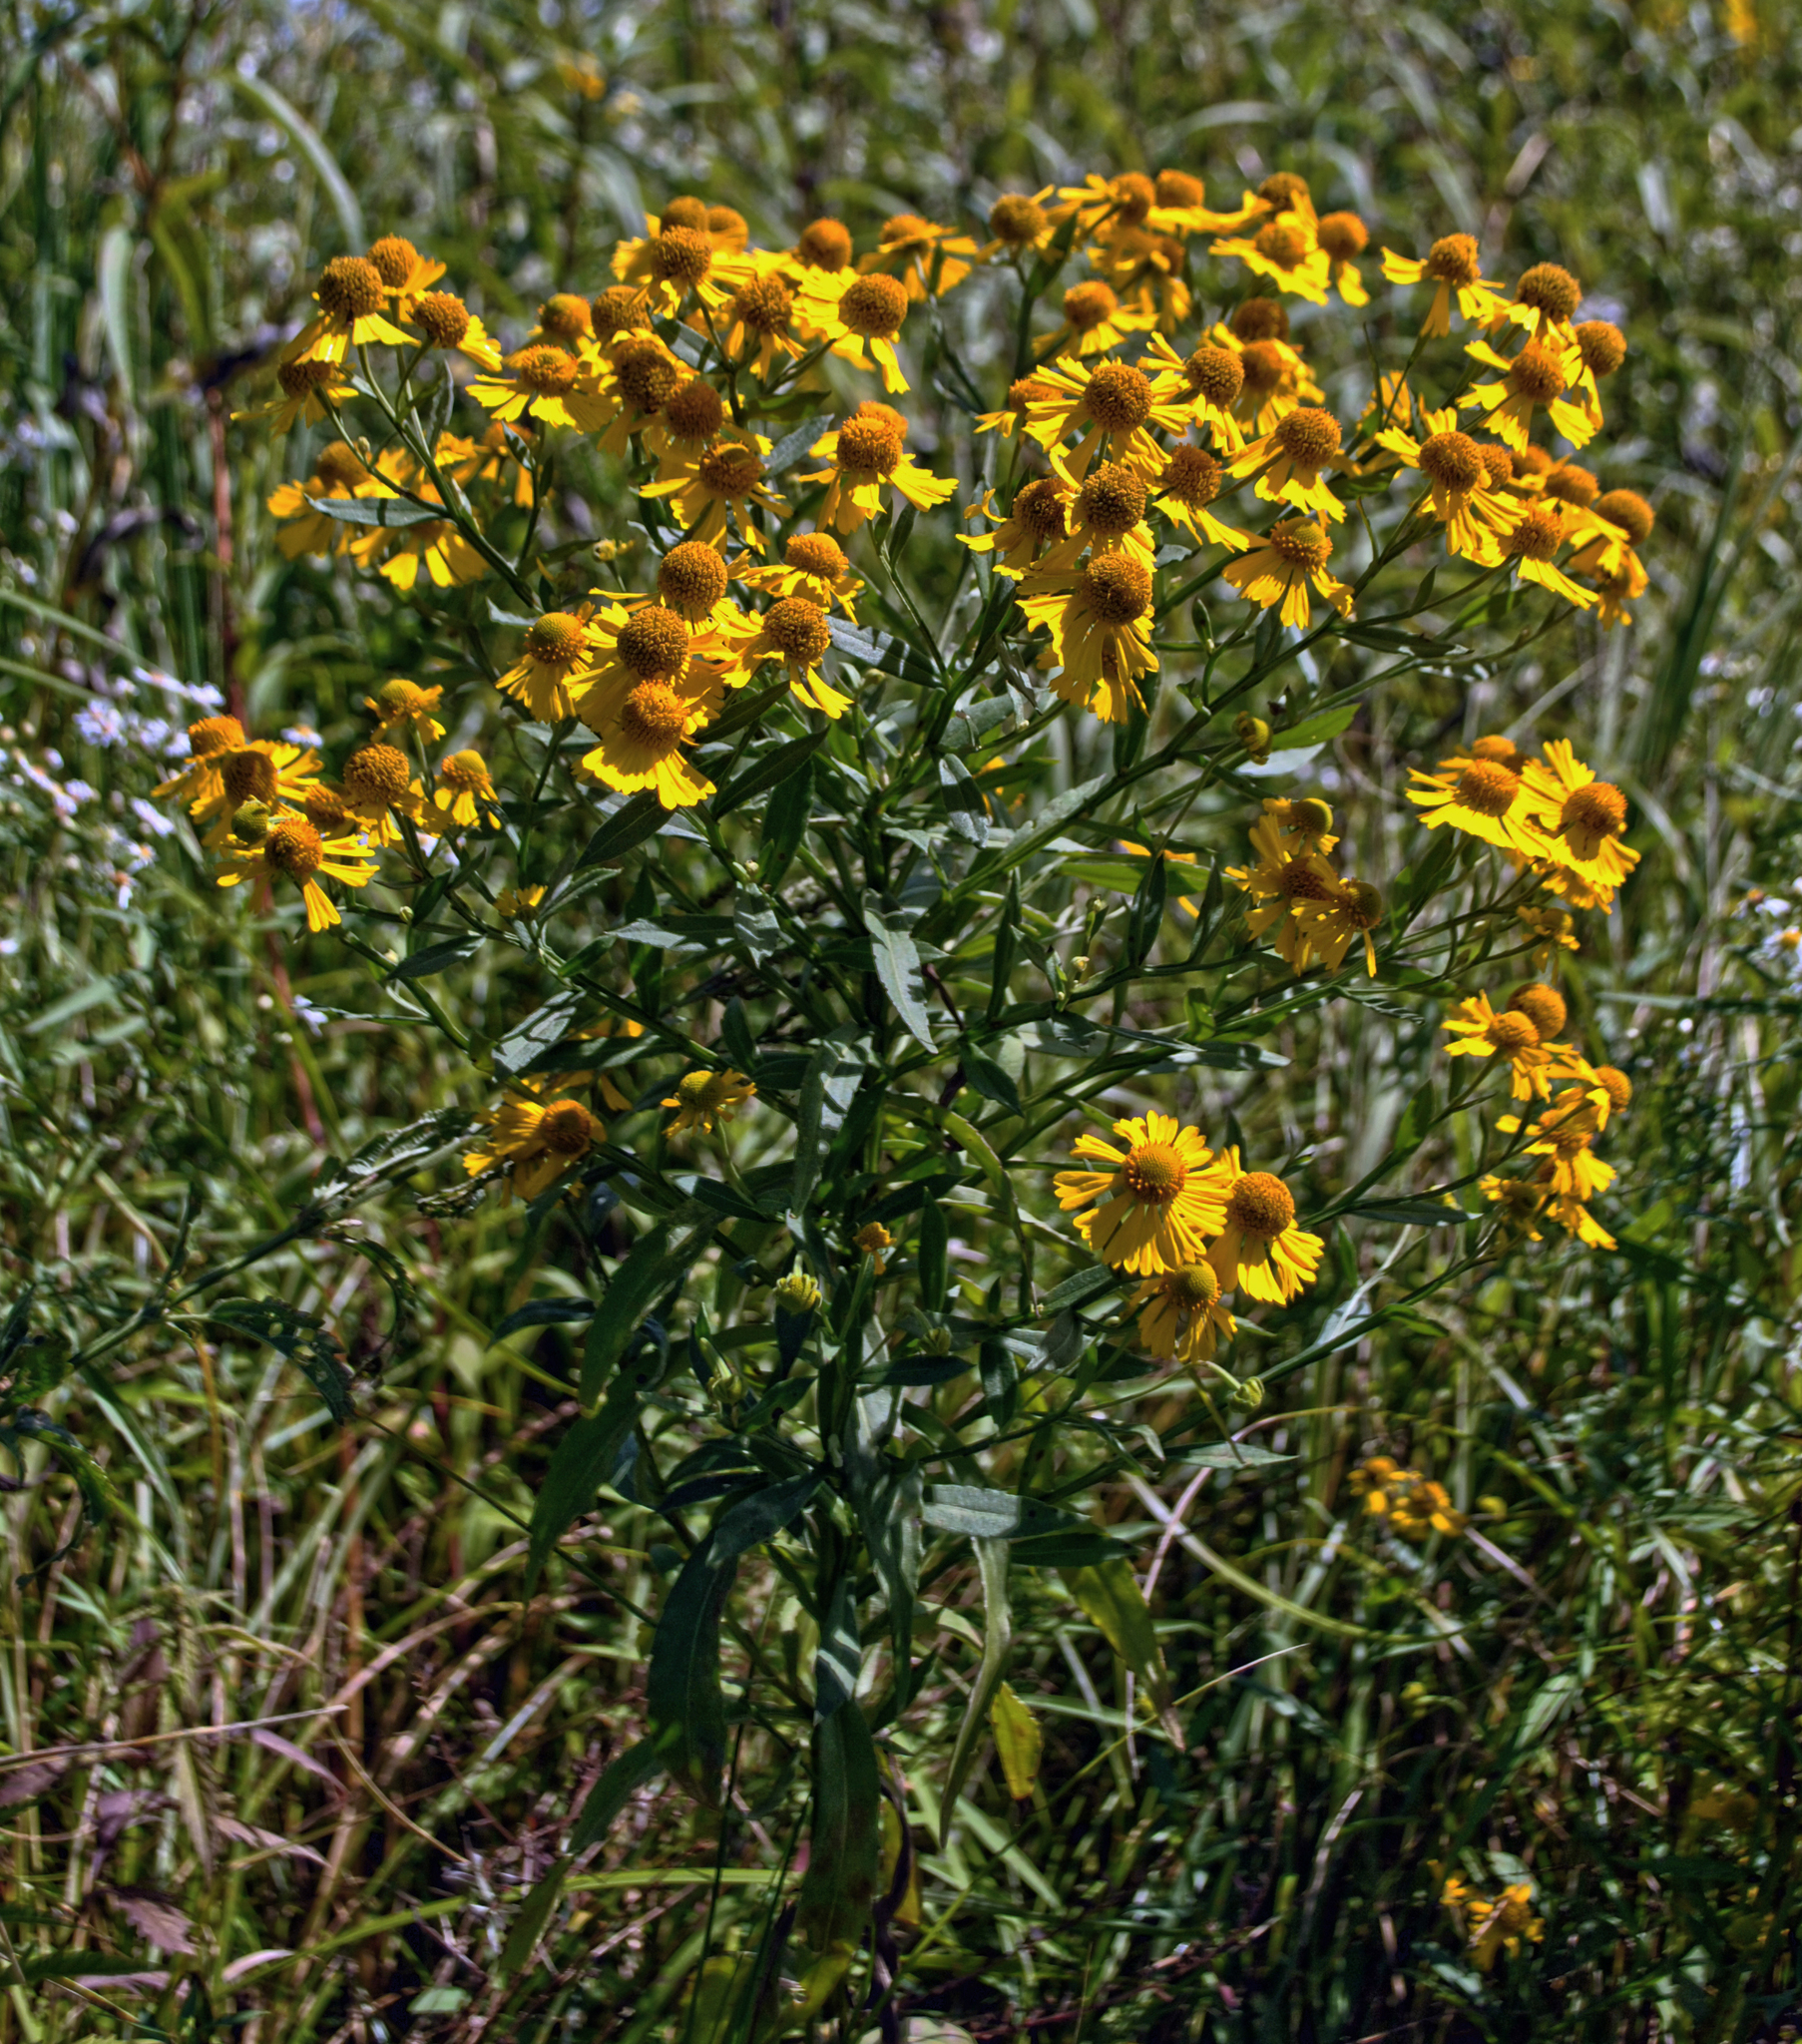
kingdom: Plantae
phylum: Tracheophyta
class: Magnoliopsida
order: Asterales
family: Asteraceae
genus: Helenium
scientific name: Helenium autumnale
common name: Sneezeweed
